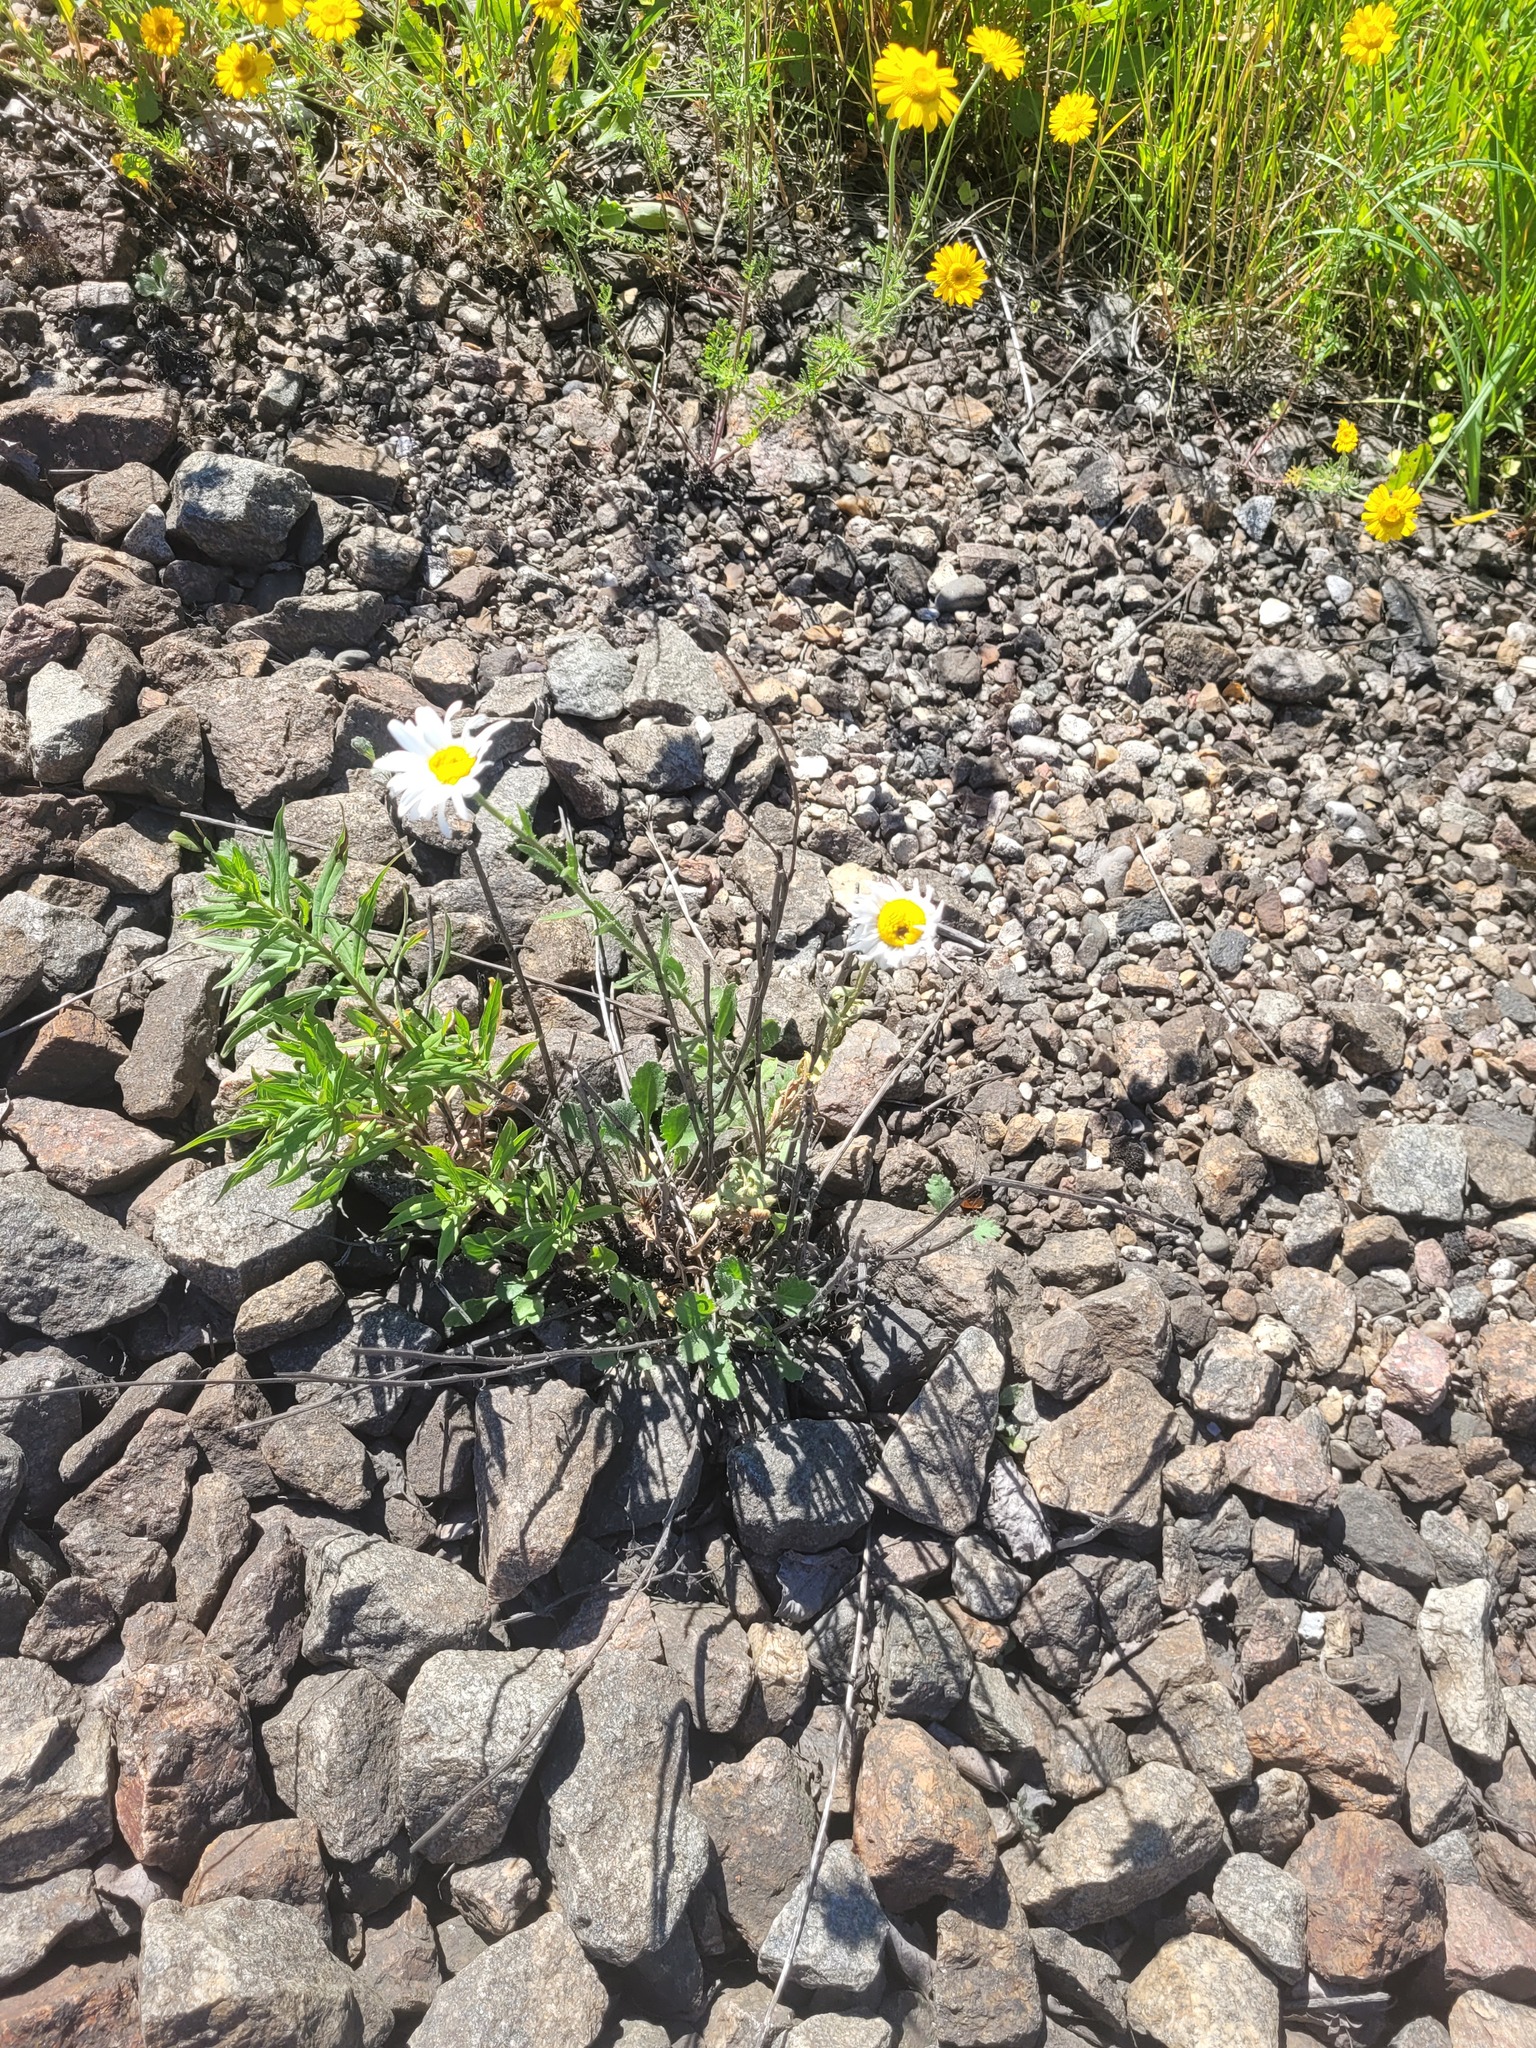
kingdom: Plantae
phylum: Tracheophyta
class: Magnoliopsida
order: Asterales
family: Asteraceae
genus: Leucanthemum
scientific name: Leucanthemum vulgare
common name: Oxeye daisy
